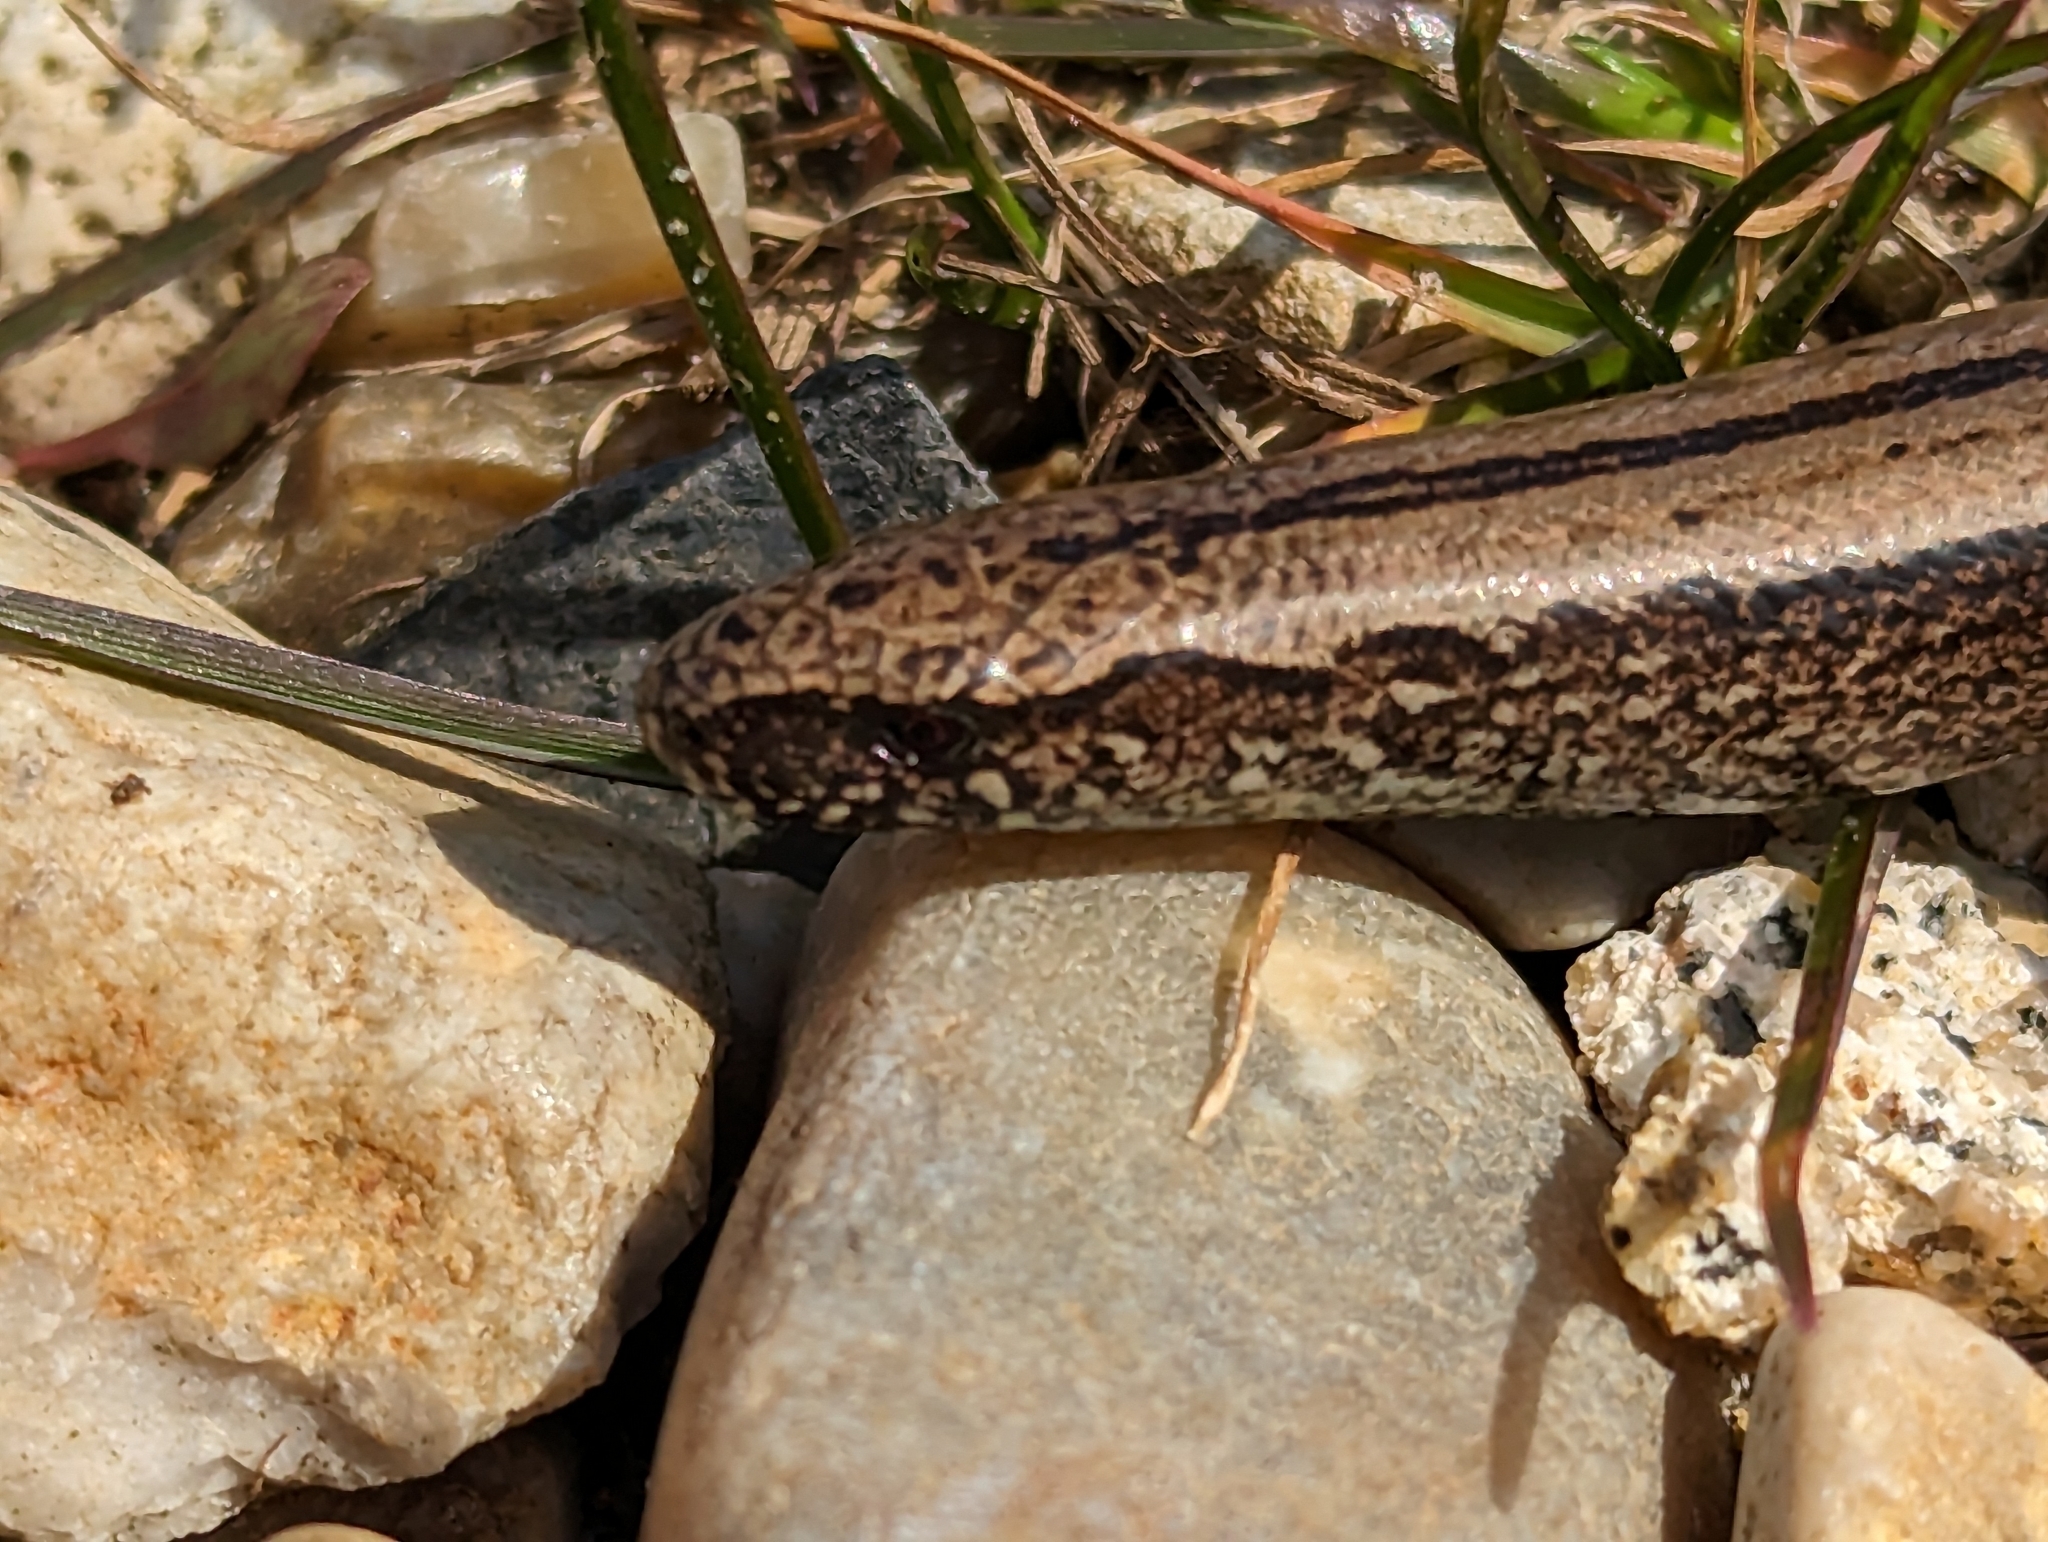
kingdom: Animalia
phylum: Chordata
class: Squamata
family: Anguidae
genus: Anguis
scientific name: Anguis fragilis
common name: Slow worm
